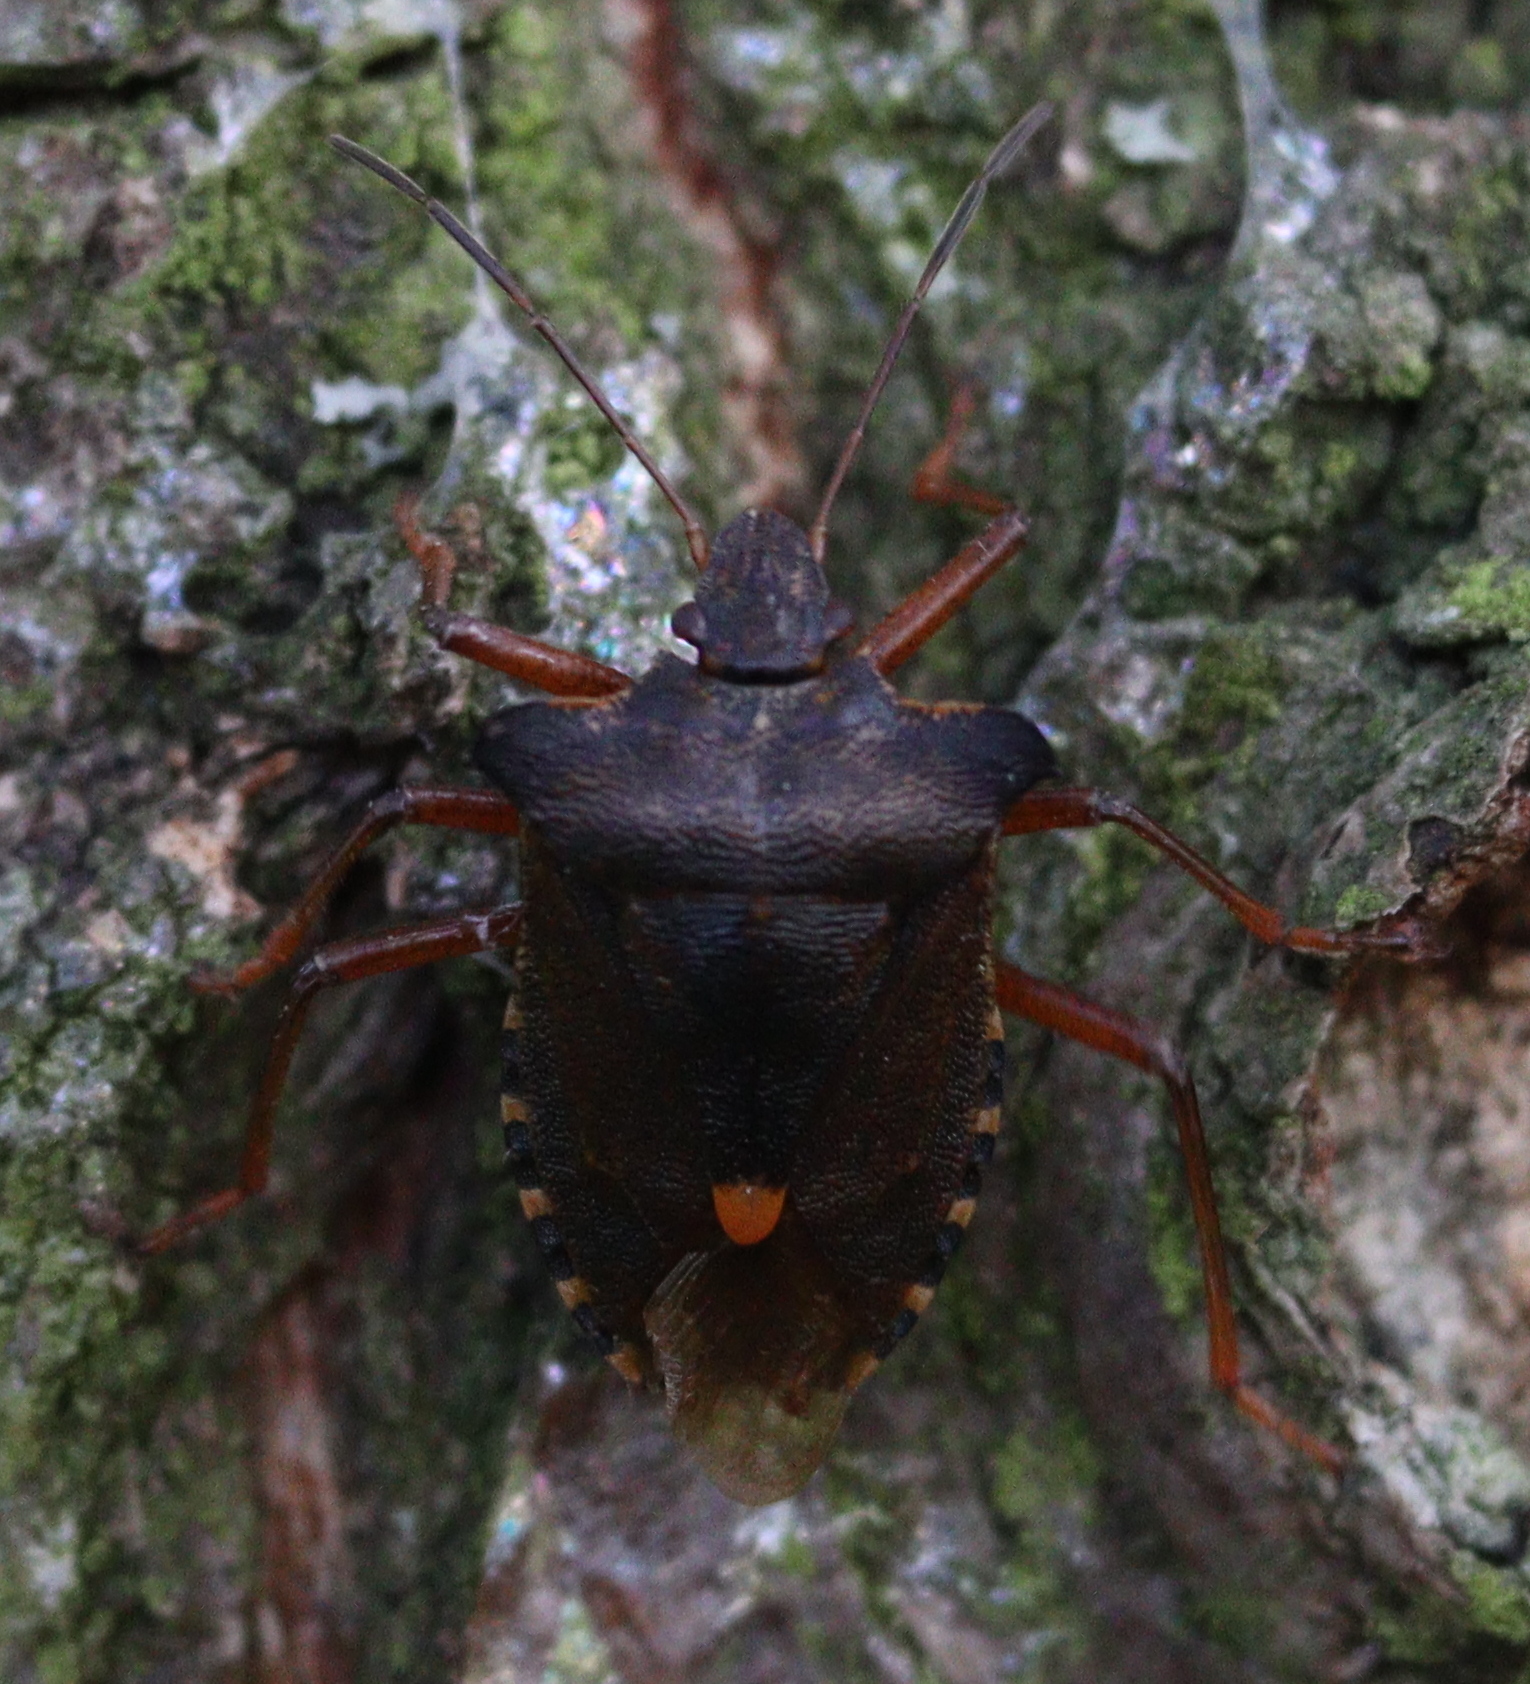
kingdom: Animalia
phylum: Arthropoda
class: Insecta
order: Hemiptera
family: Pentatomidae
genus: Pentatoma
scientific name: Pentatoma rufipes
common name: Forest bug
